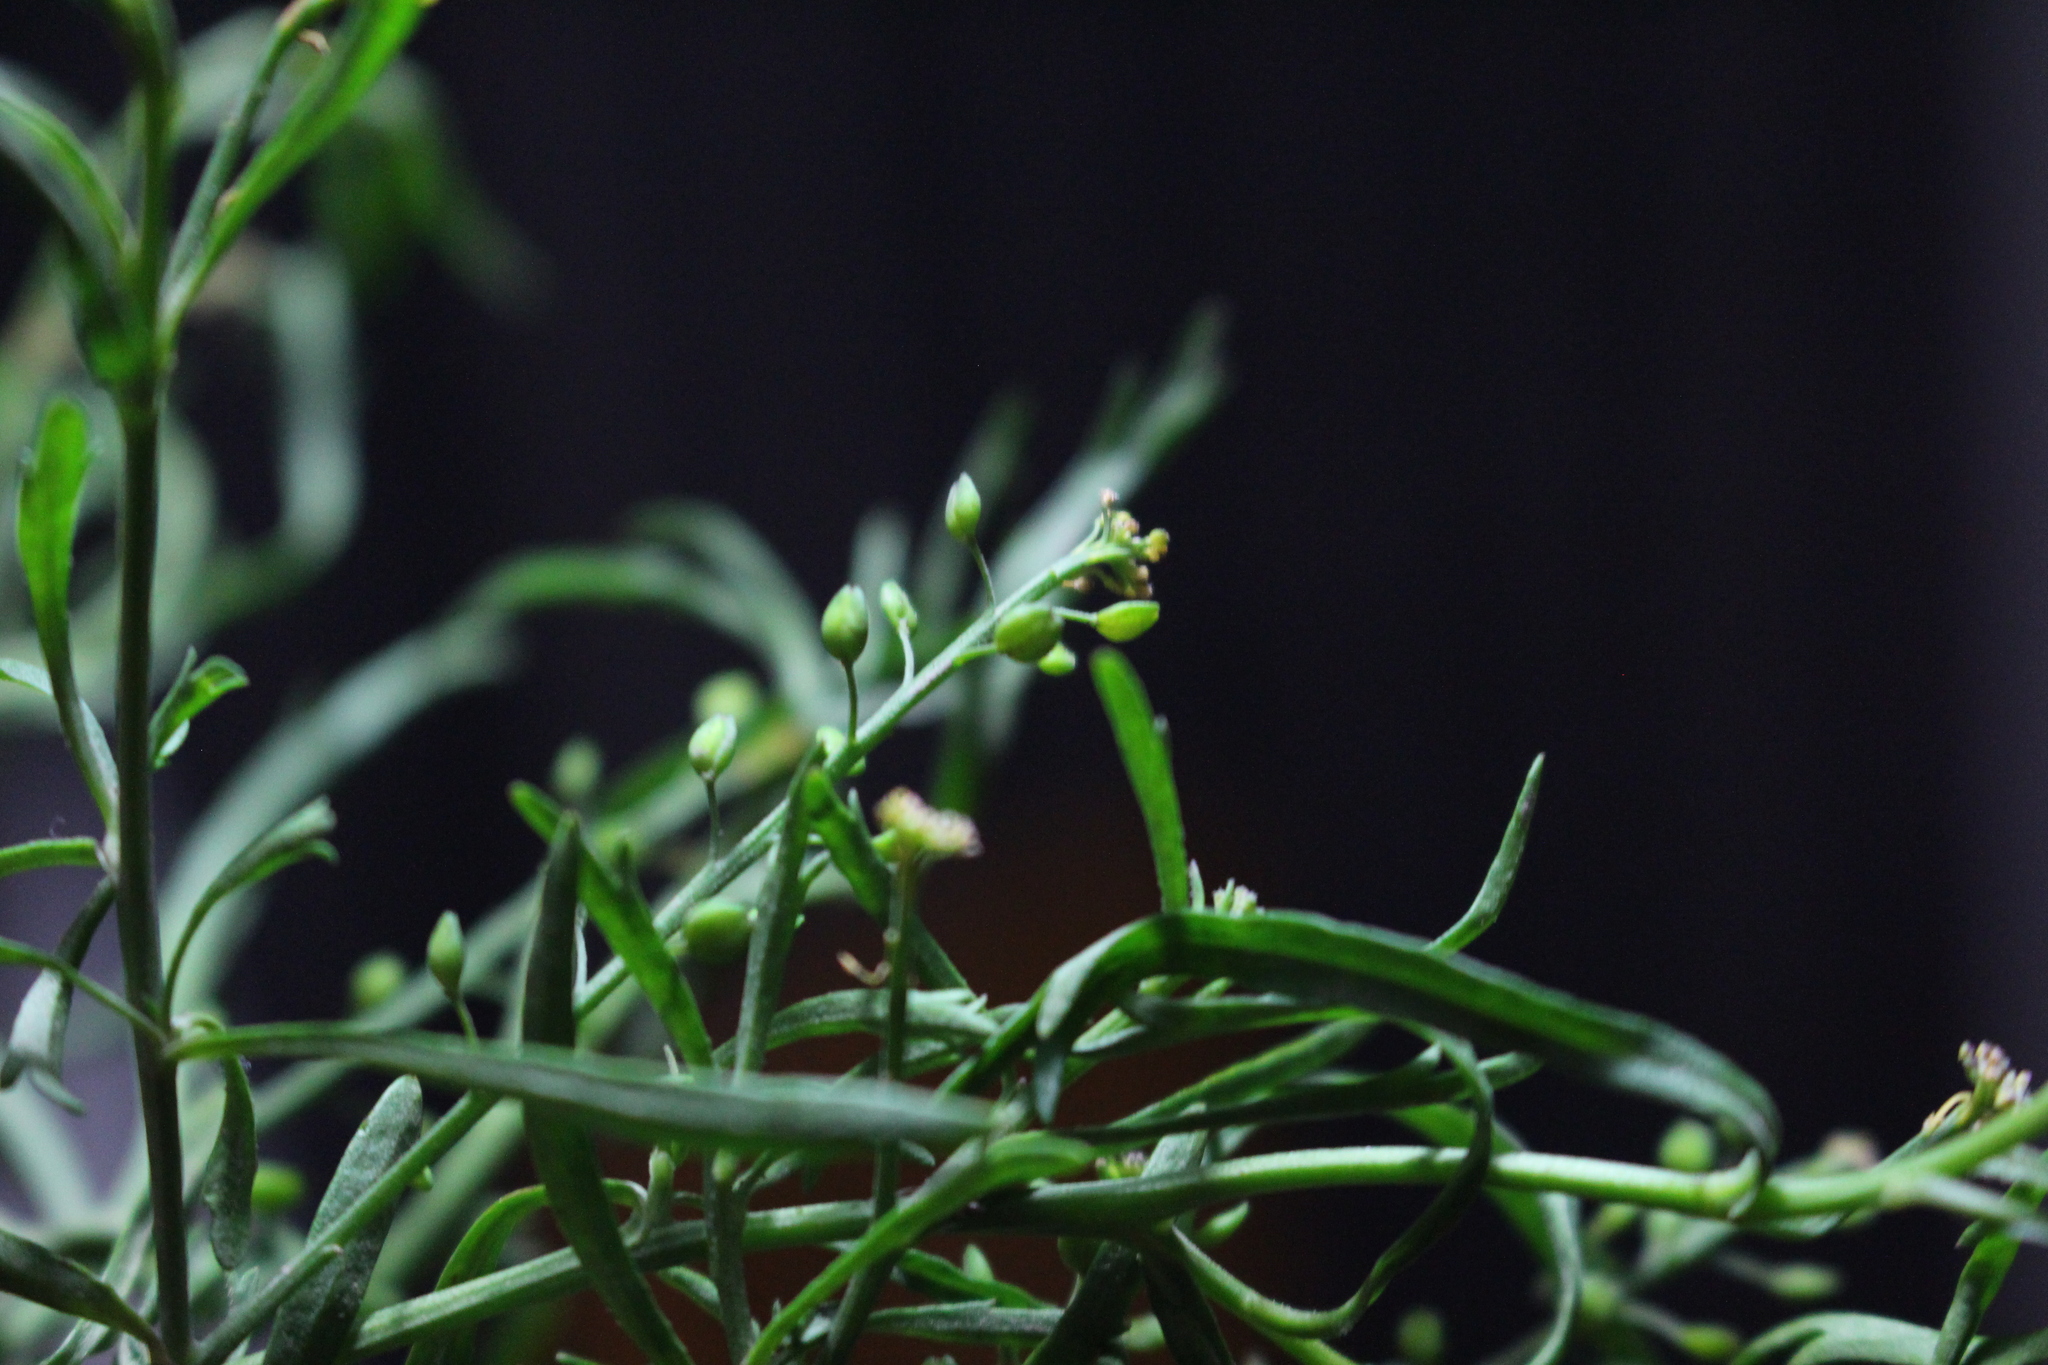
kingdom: Plantae
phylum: Tracheophyta
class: Magnoliopsida
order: Brassicales
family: Brassicaceae
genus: Lepidium
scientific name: Lepidium africanum
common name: African pepperwort
